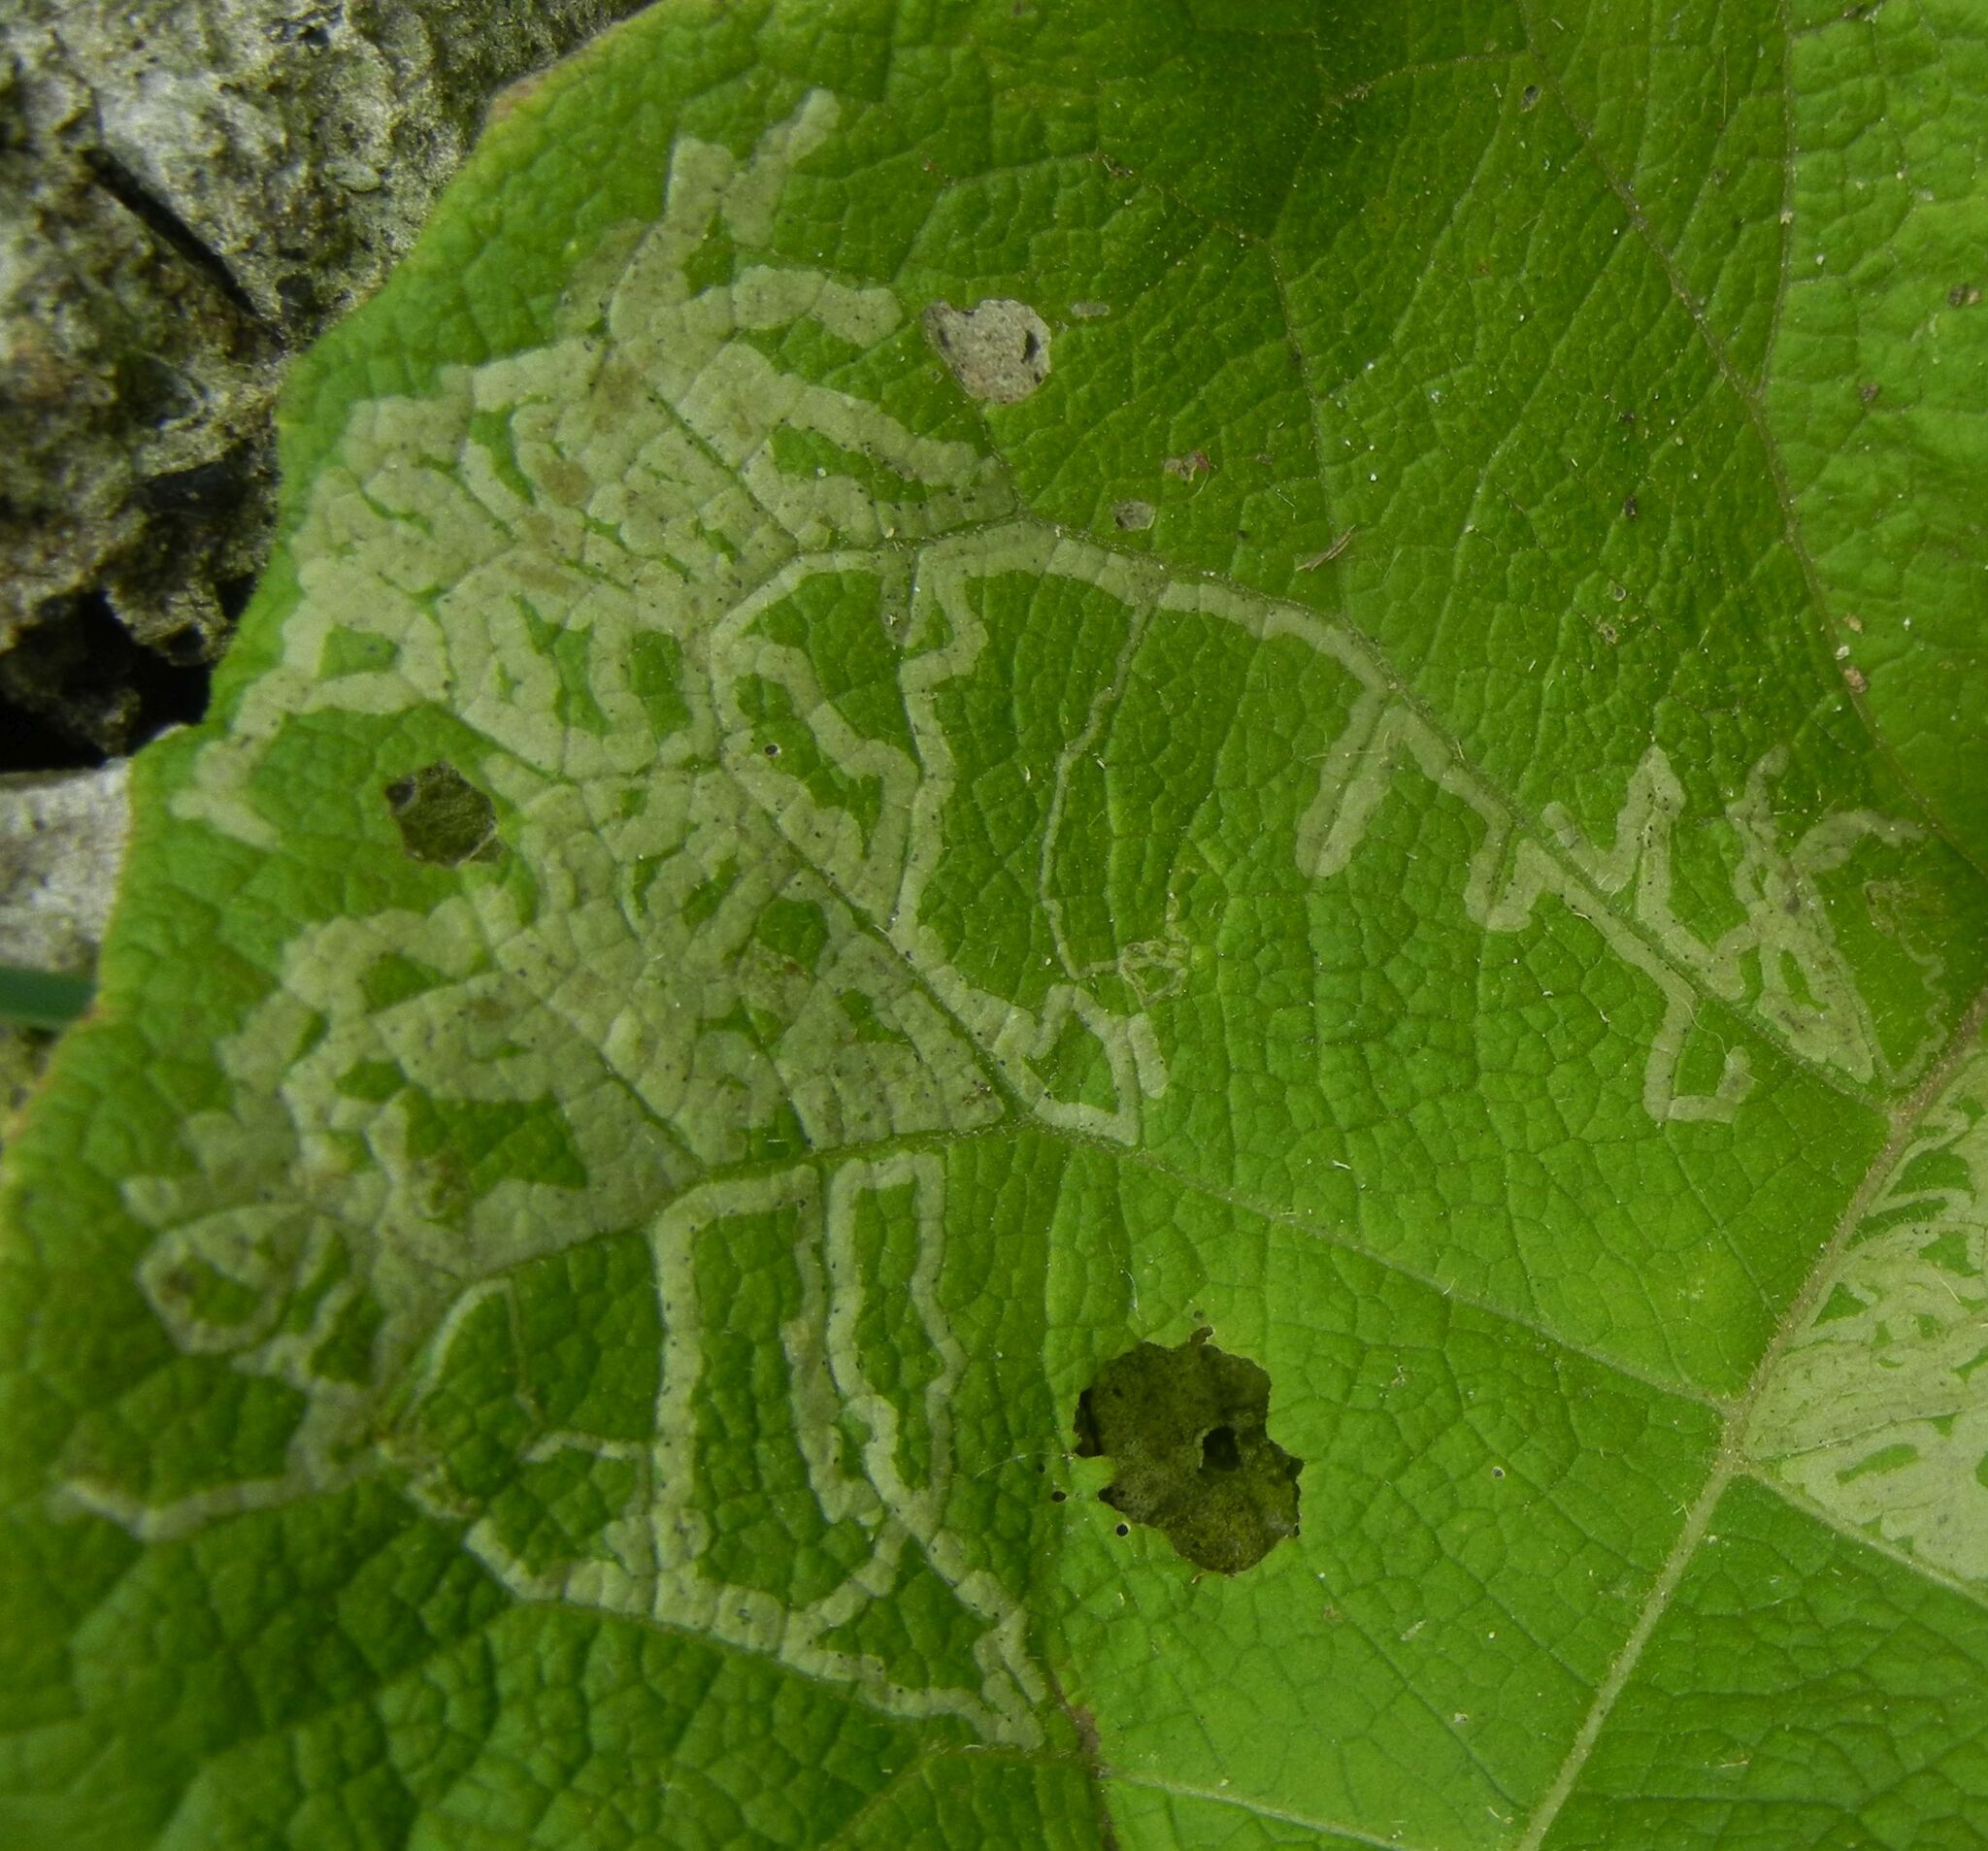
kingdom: Animalia
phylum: Arthropoda
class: Insecta
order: Diptera
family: Agromyzidae
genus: Phytomyza
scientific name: Phytomyza lappae
